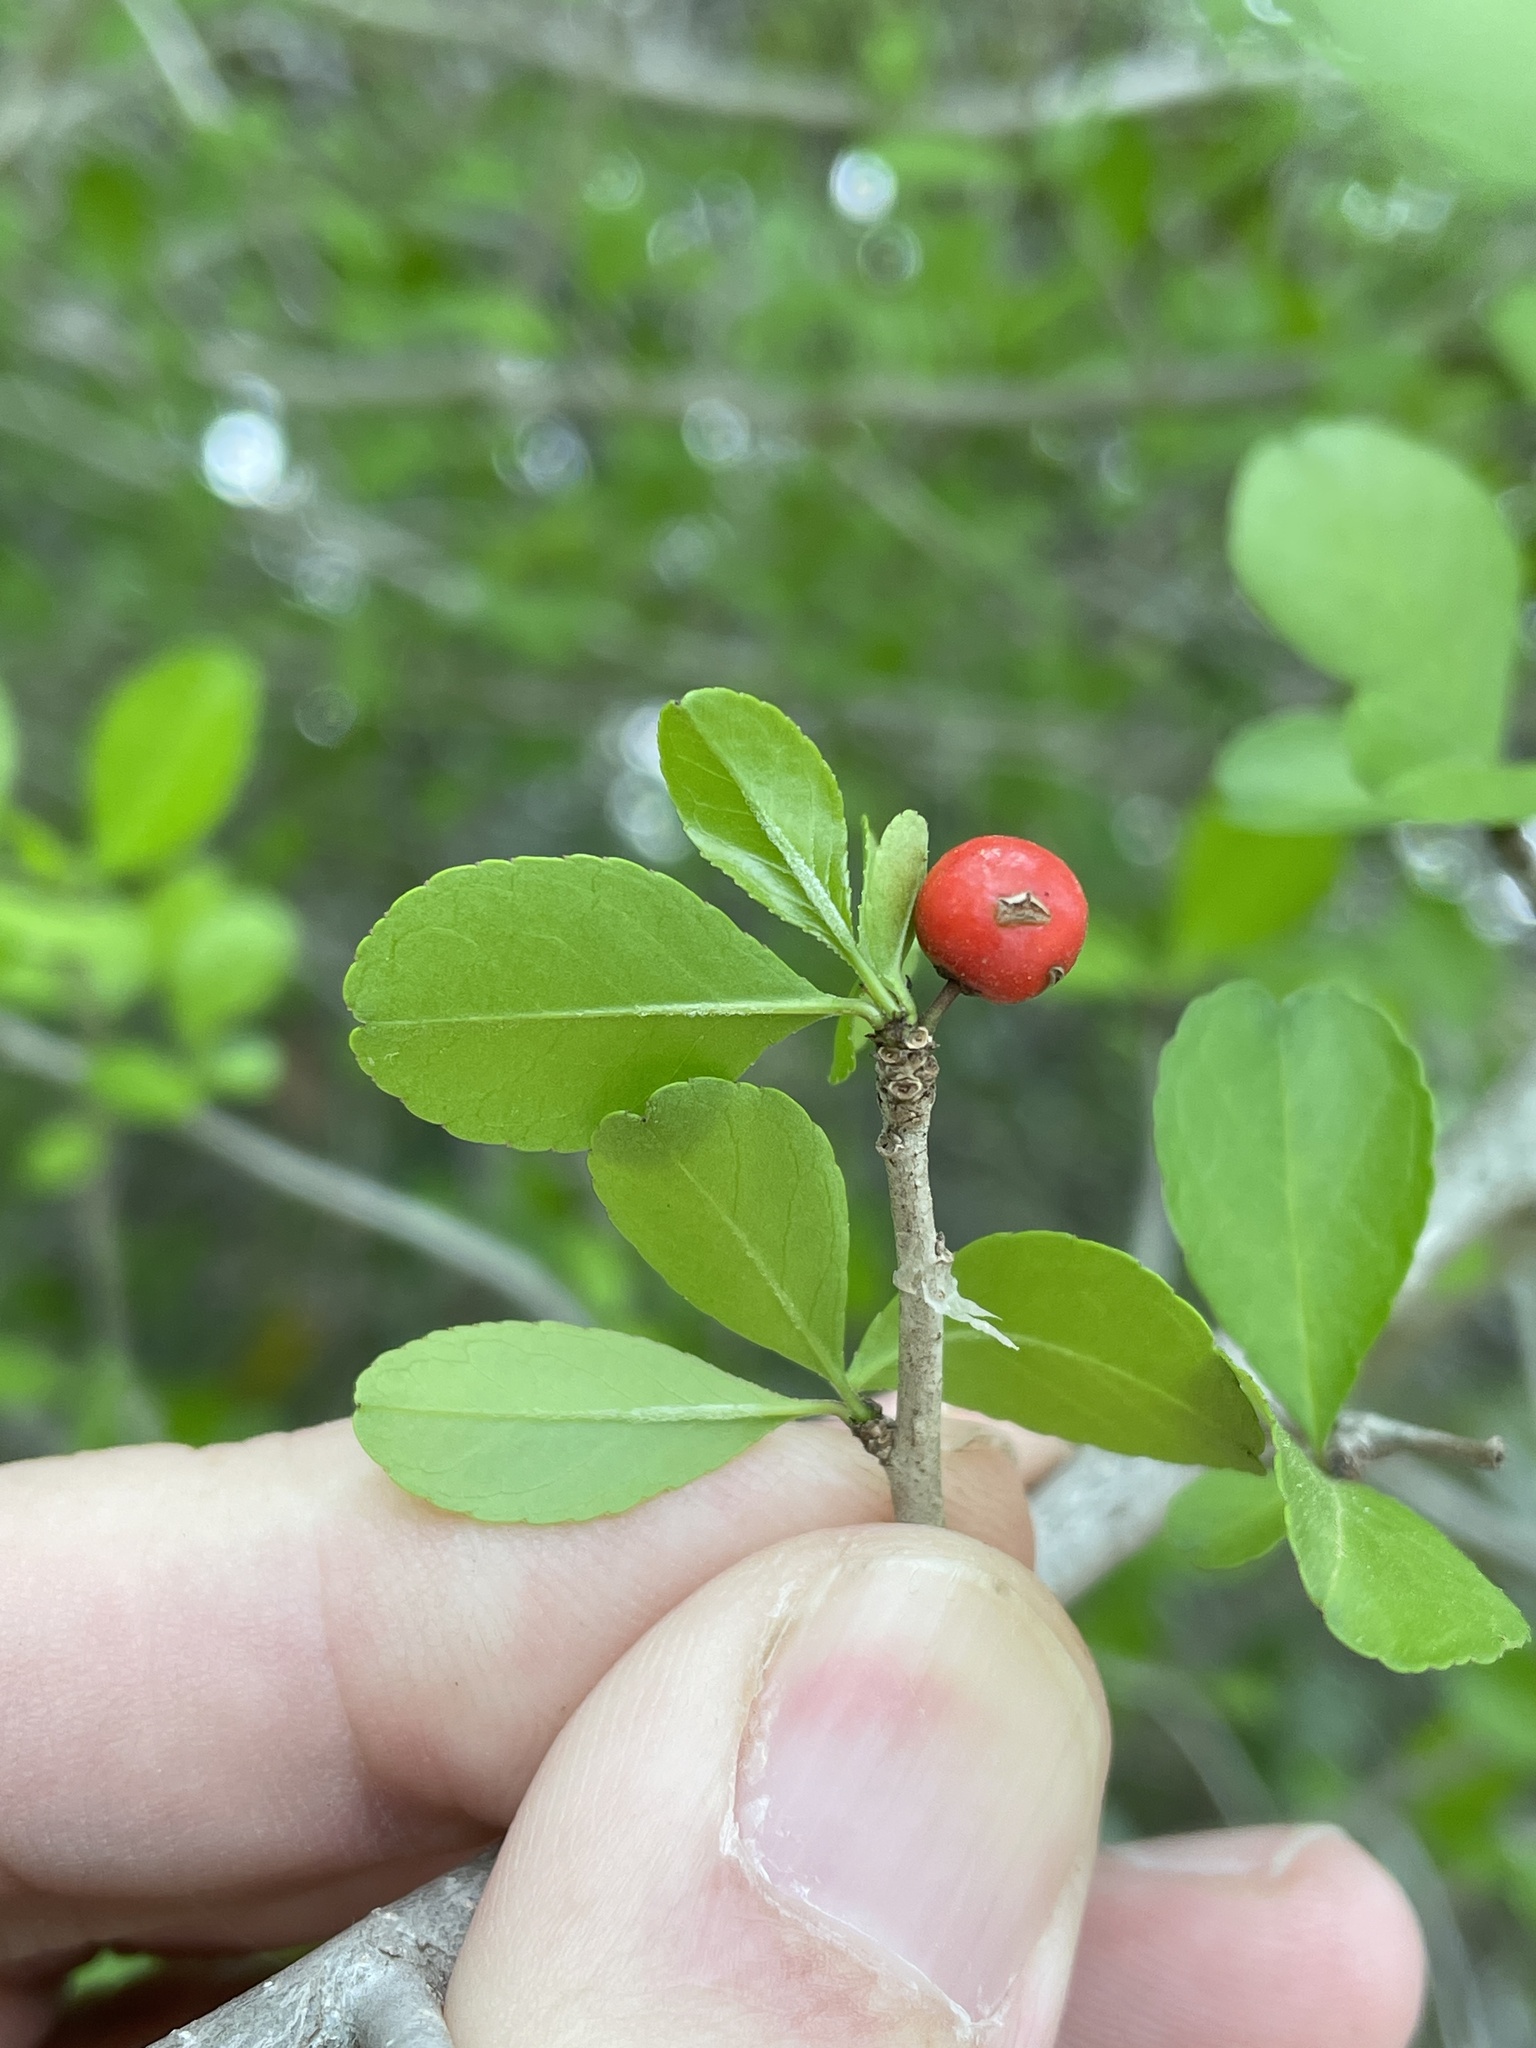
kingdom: Plantae
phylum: Tracheophyta
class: Magnoliopsida
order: Aquifoliales
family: Aquifoliaceae
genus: Ilex
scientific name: Ilex decidua
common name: Possum-haw
